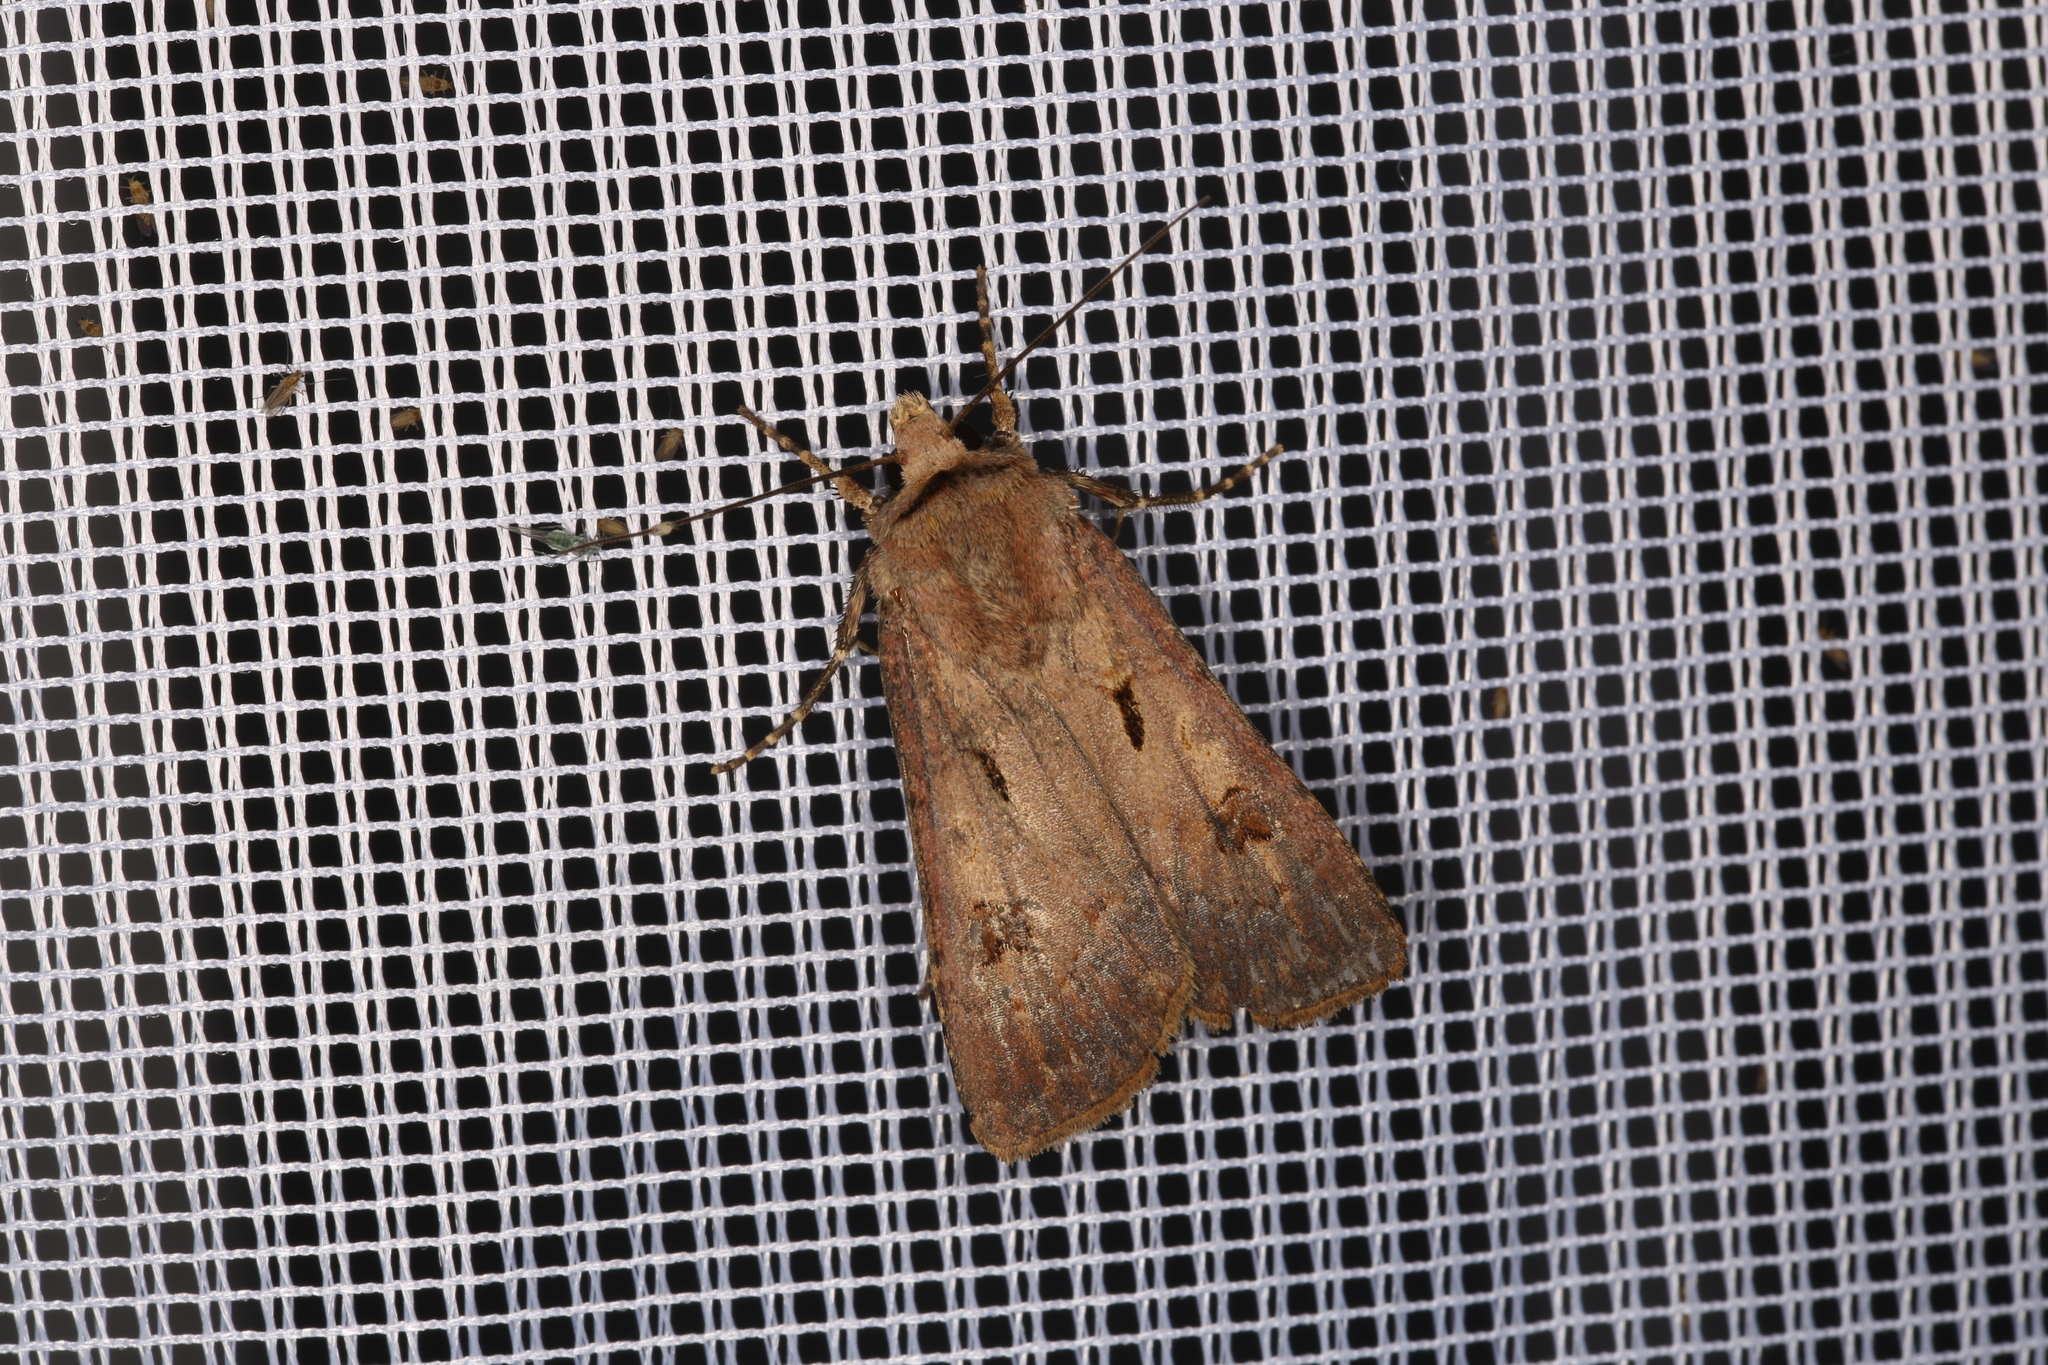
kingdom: Animalia
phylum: Arthropoda
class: Insecta
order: Lepidoptera
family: Noctuidae
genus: Agrotis
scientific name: Agrotis exclamationis
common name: Heart and dart
